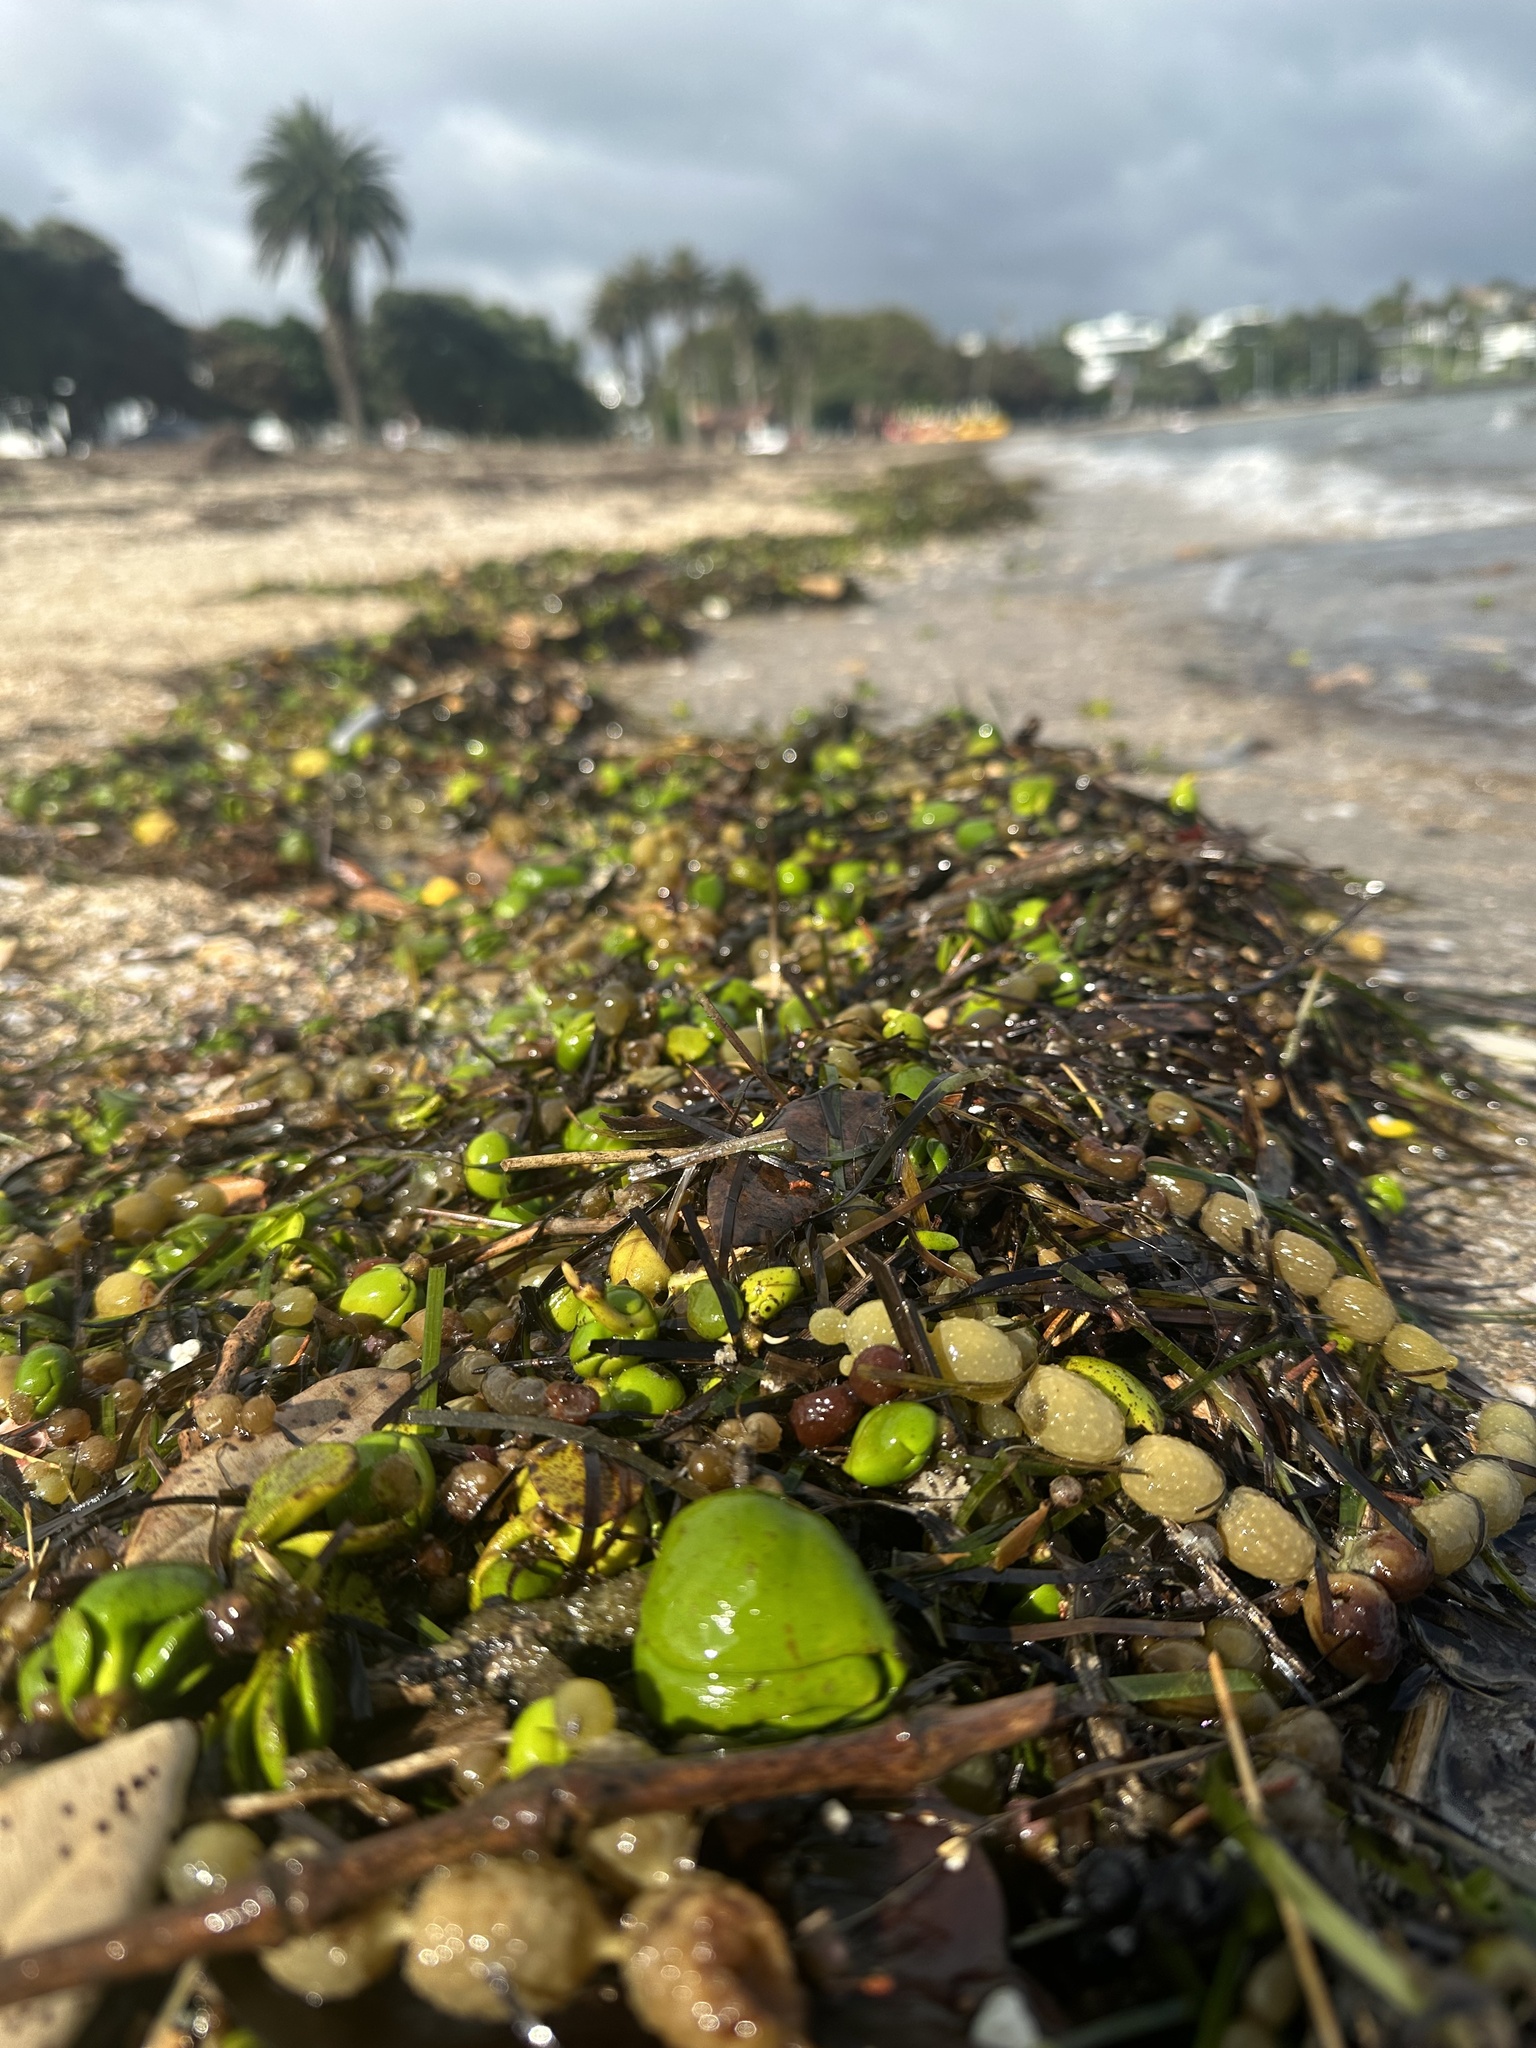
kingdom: Plantae
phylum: Tracheophyta
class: Magnoliopsida
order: Lamiales
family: Acanthaceae
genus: Avicennia
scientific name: Avicennia marina
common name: Gray mangrove
